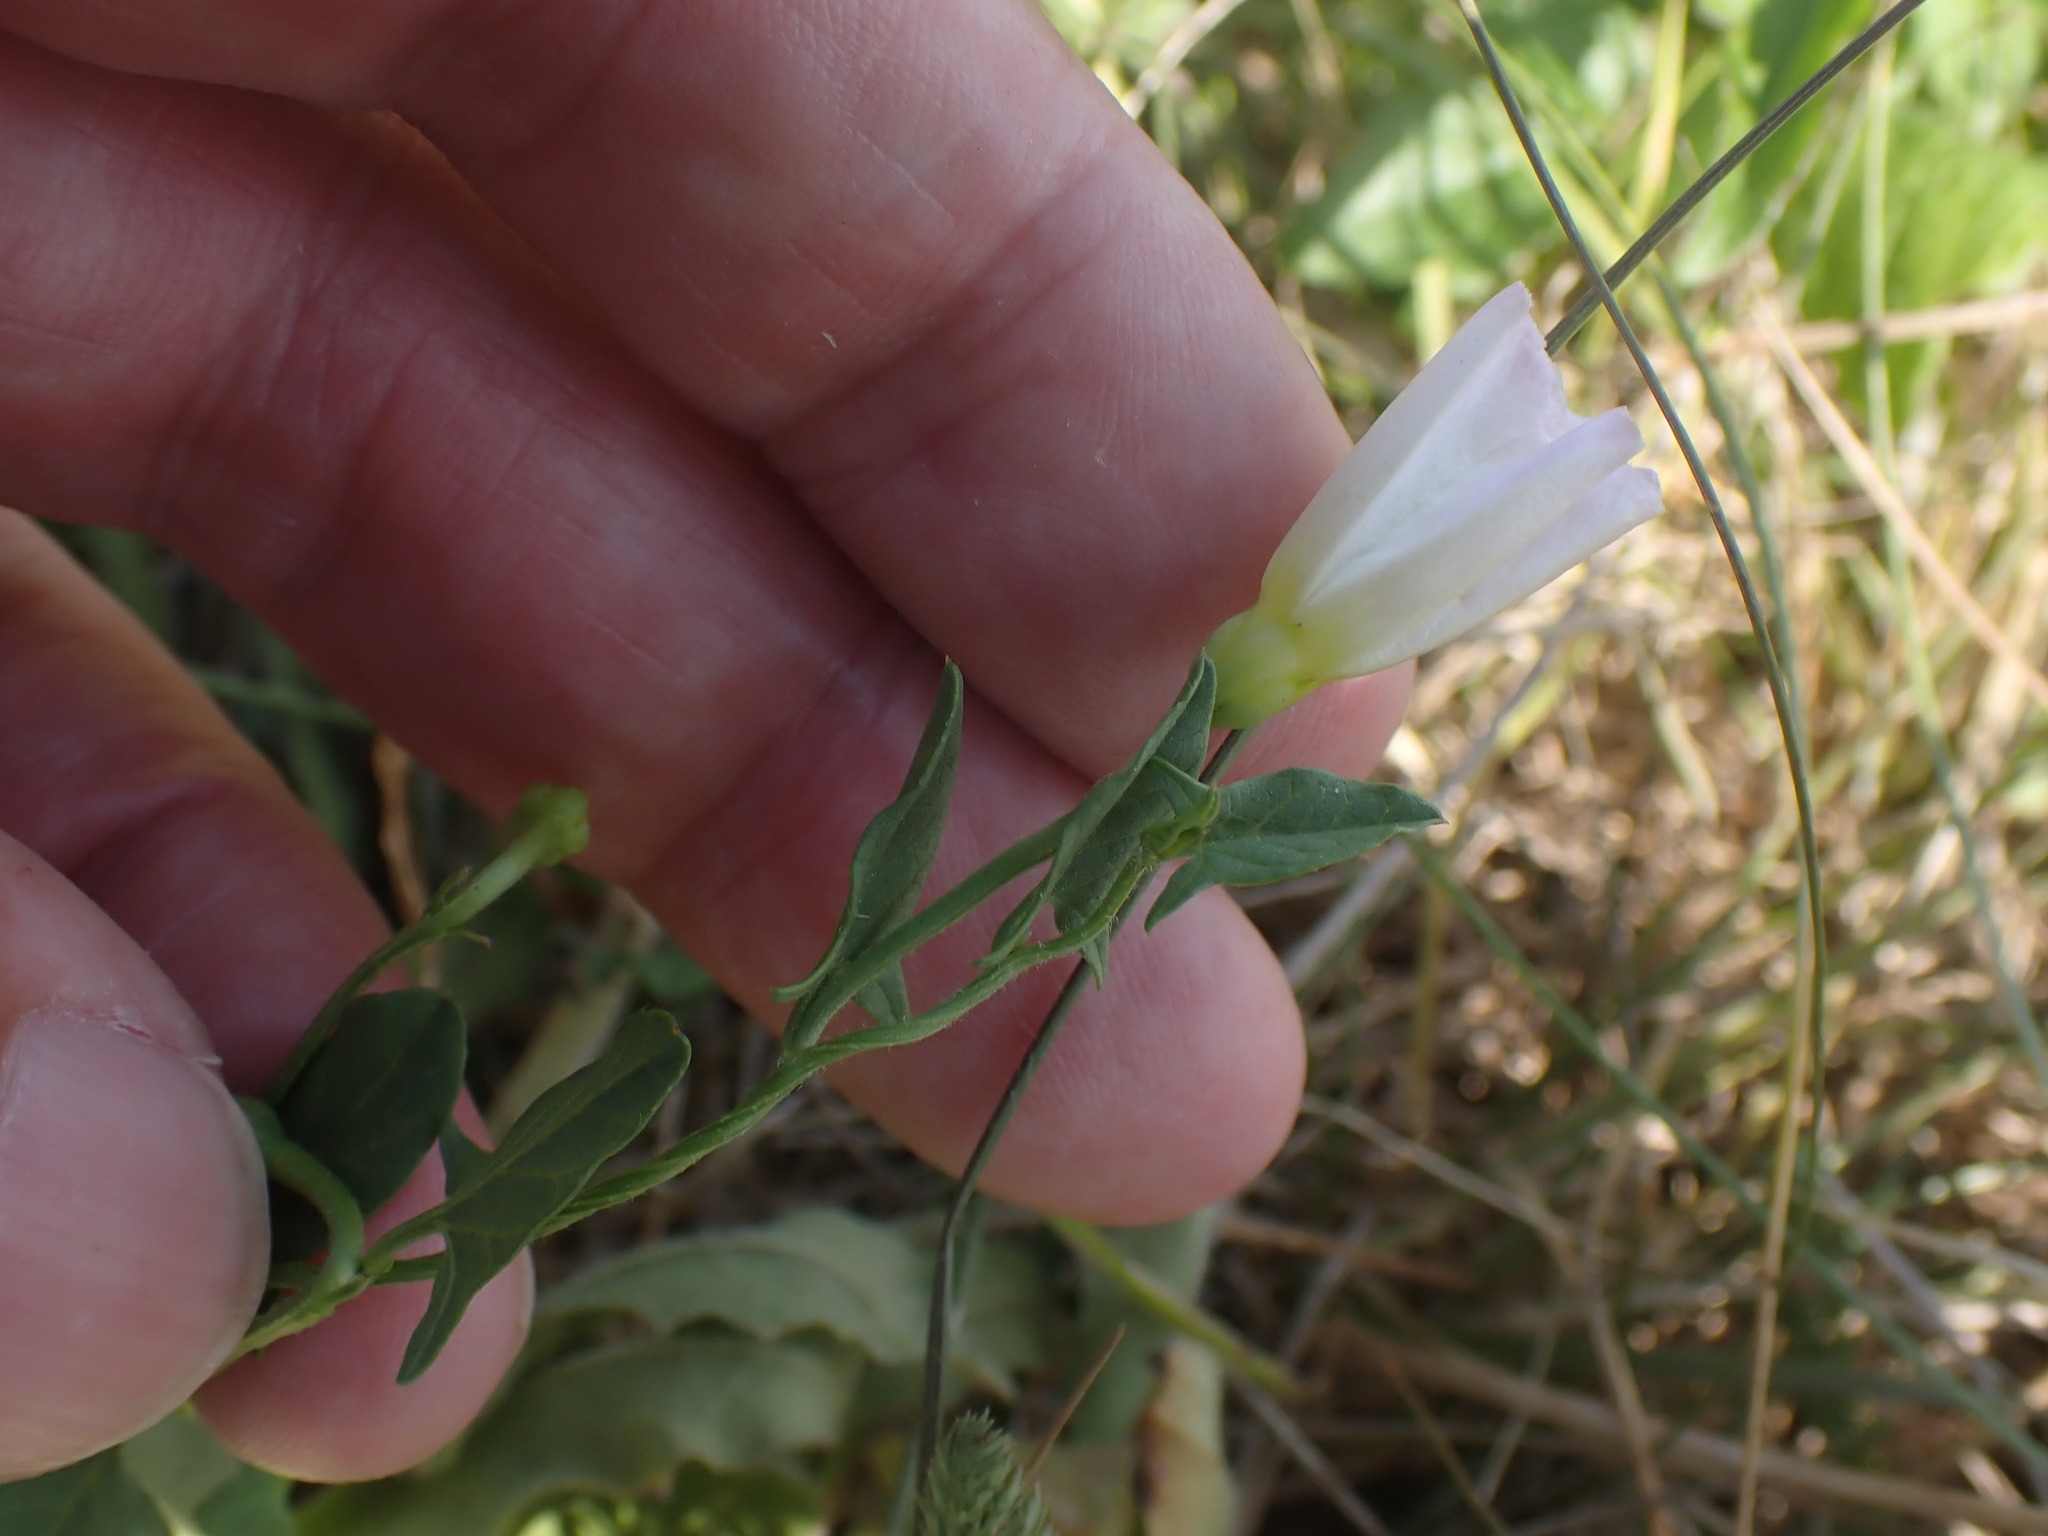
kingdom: Plantae
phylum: Tracheophyta
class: Magnoliopsida
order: Solanales
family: Convolvulaceae
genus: Convolvulus
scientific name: Convolvulus arvensis
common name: Field bindweed
